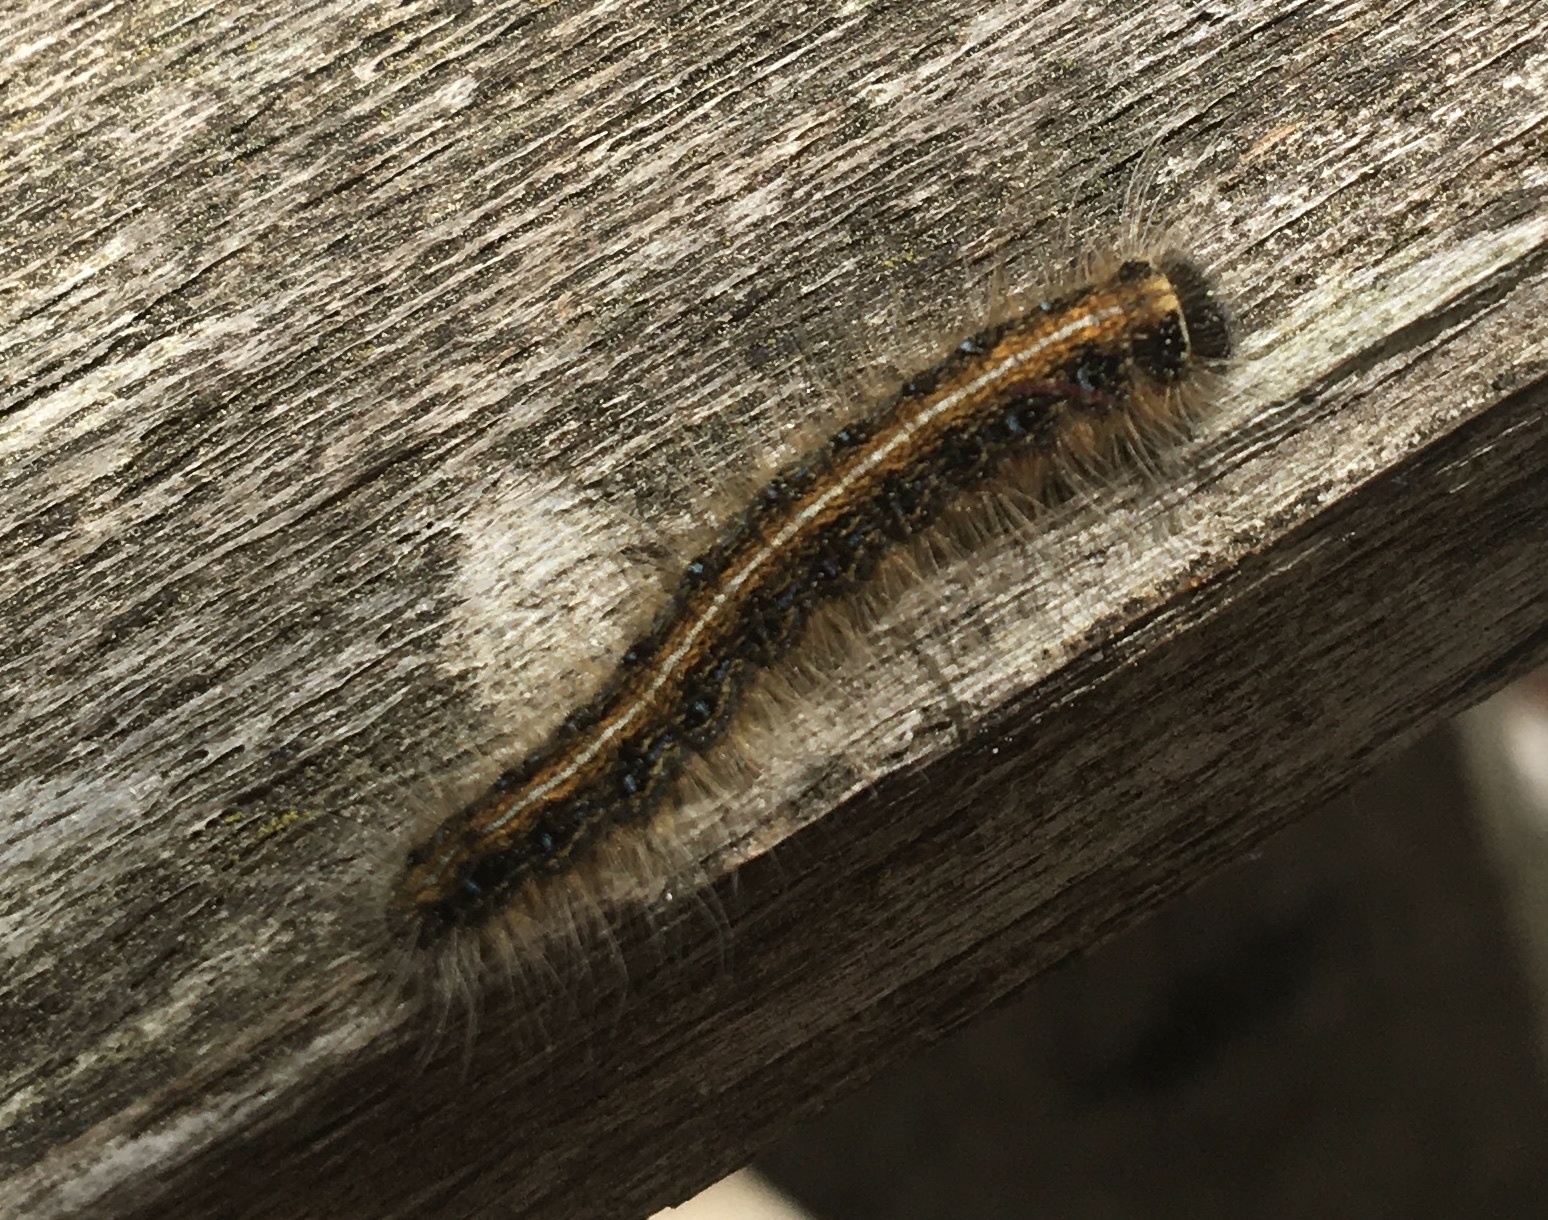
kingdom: Animalia
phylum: Arthropoda
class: Insecta
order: Lepidoptera
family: Lasiocampidae
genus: Malacosoma
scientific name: Malacosoma americana
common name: Eastern tent caterpillar moth
